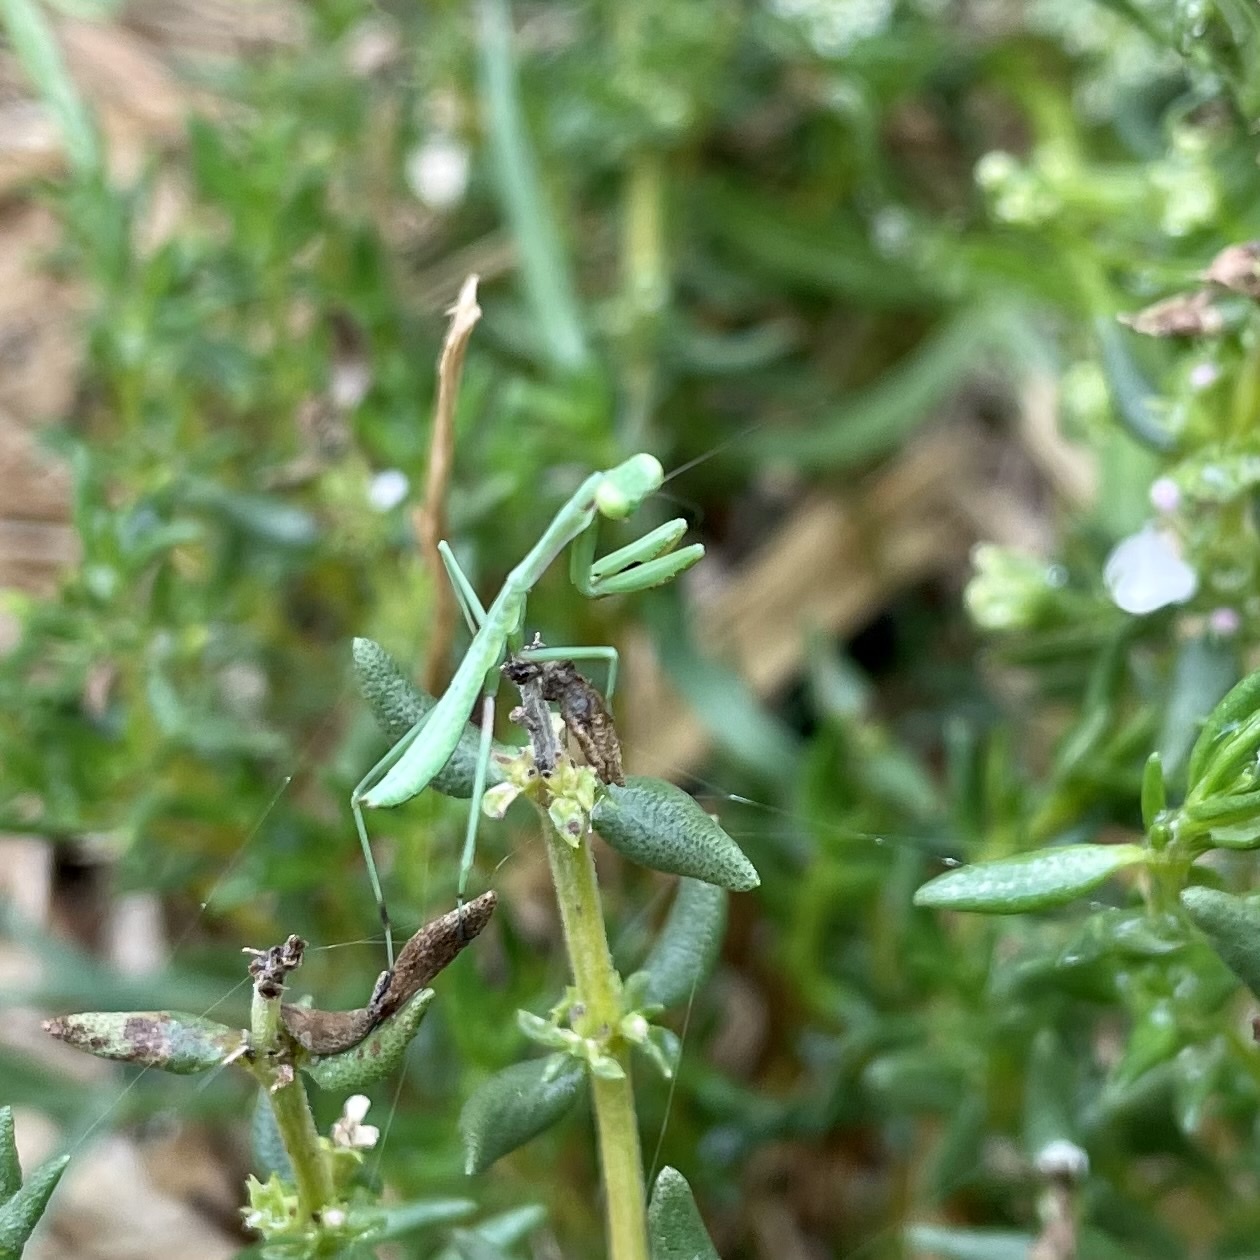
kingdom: Animalia
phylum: Arthropoda
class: Insecta
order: Mantodea
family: Mantidae
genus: Pseudomantis
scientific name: Pseudomantis albofimbriata
